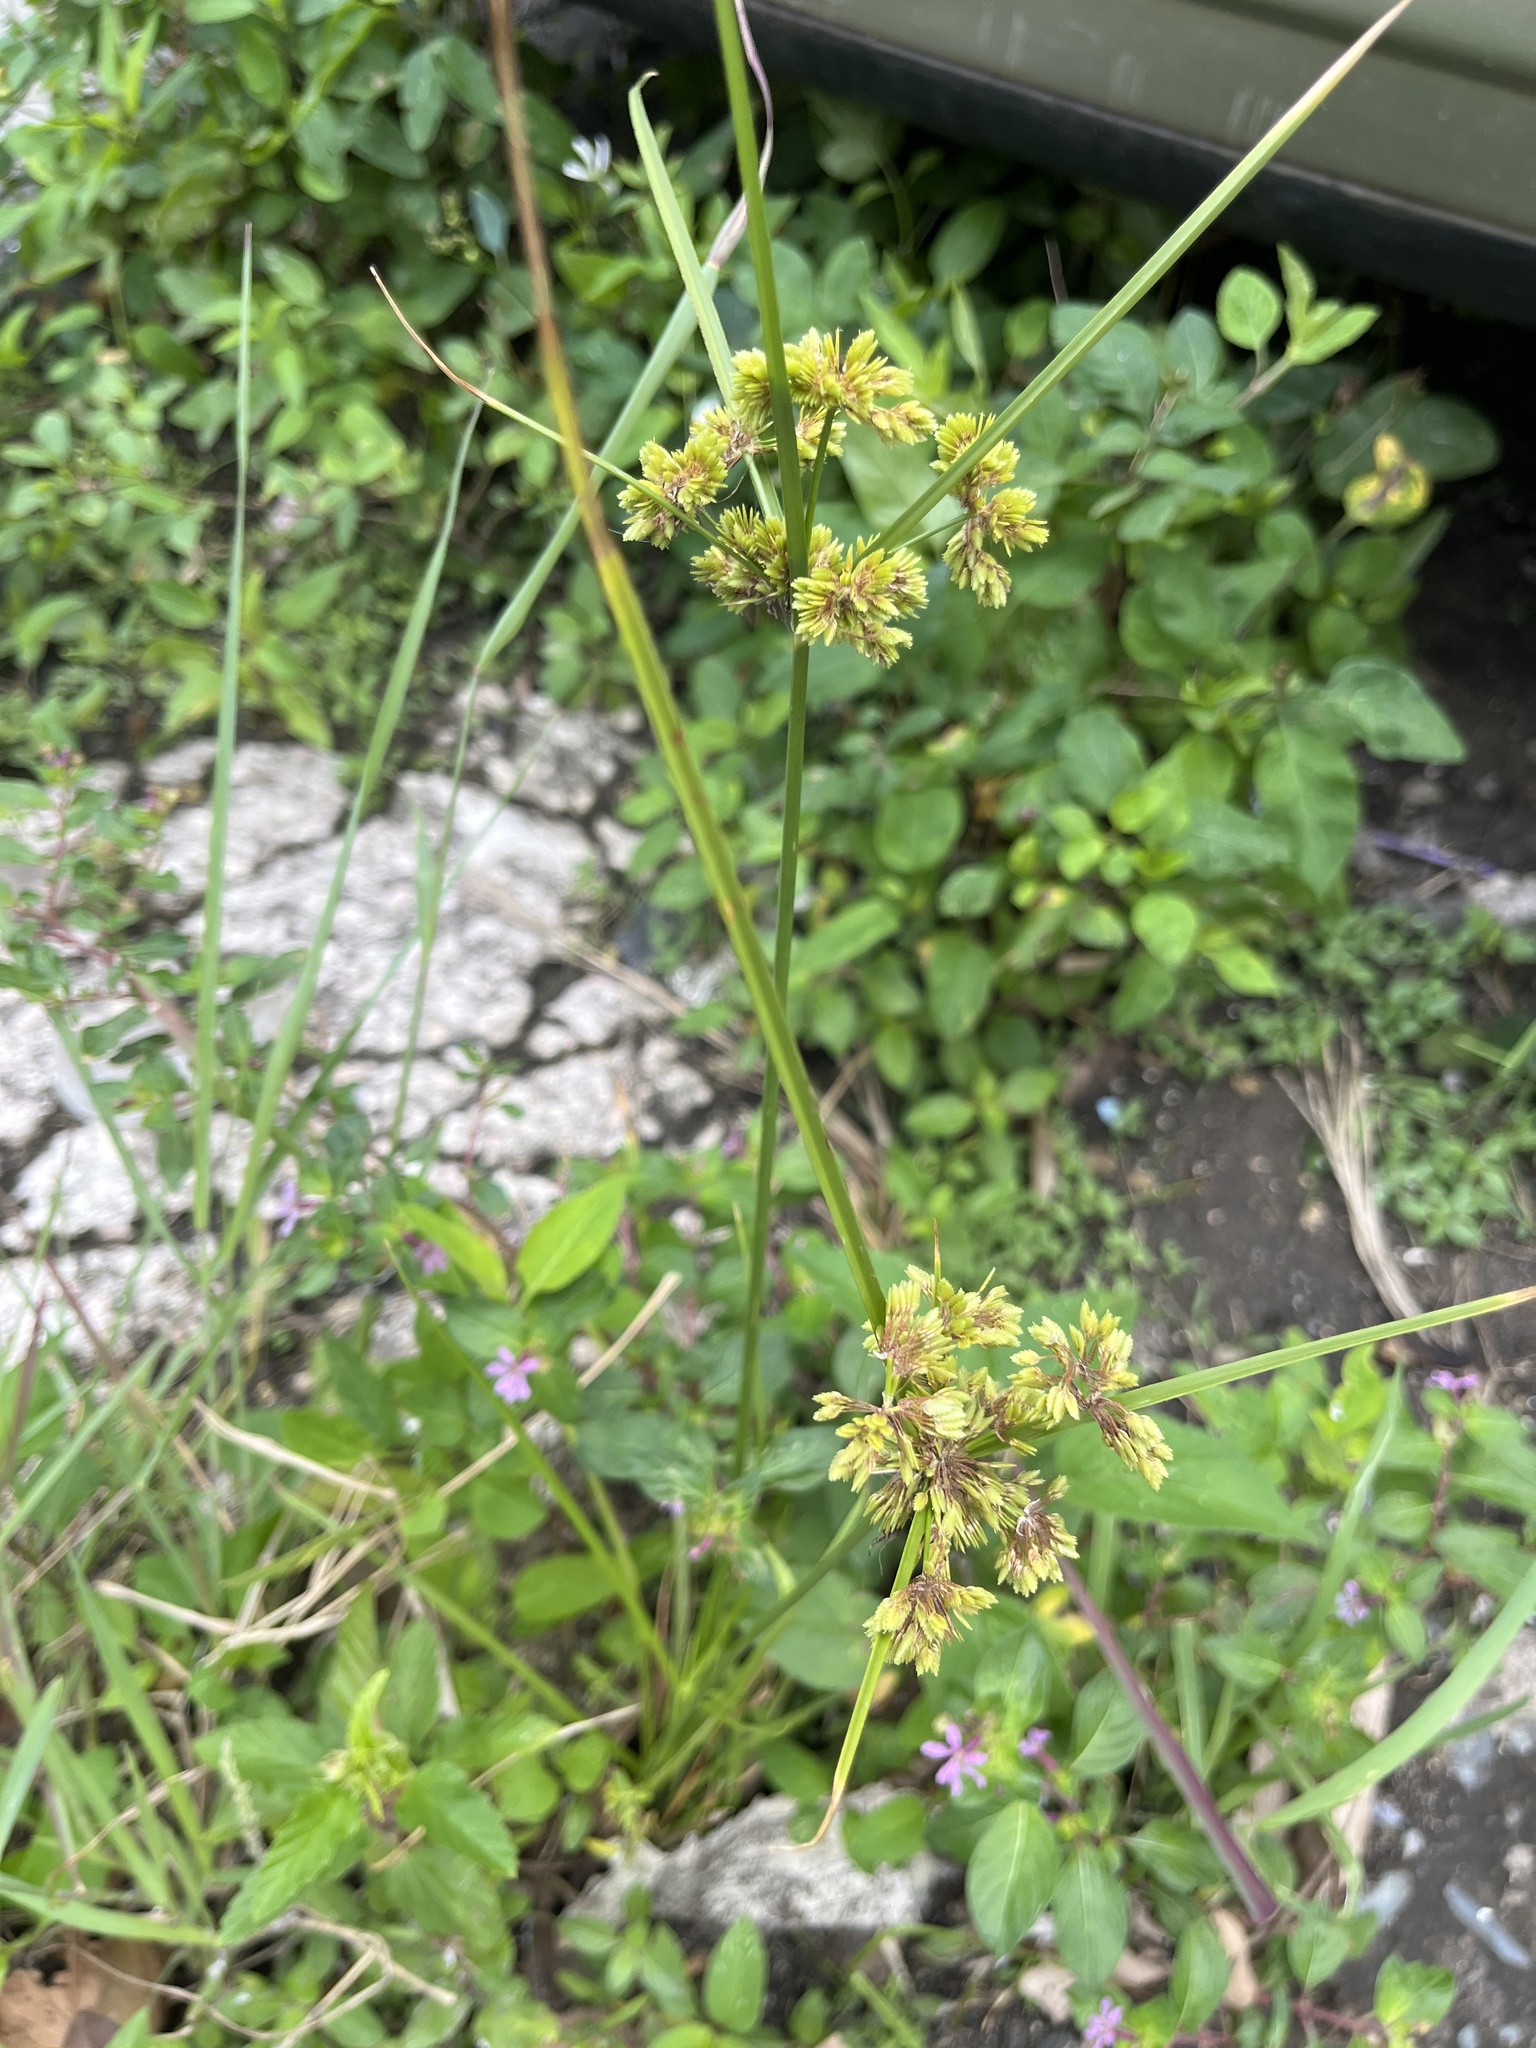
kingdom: Plantae
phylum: Tracheophyta
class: Liliopsida
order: Poales
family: Cyperaceae
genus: Cyperus
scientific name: Cyperus surinamensis
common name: Tropical flat sedge
